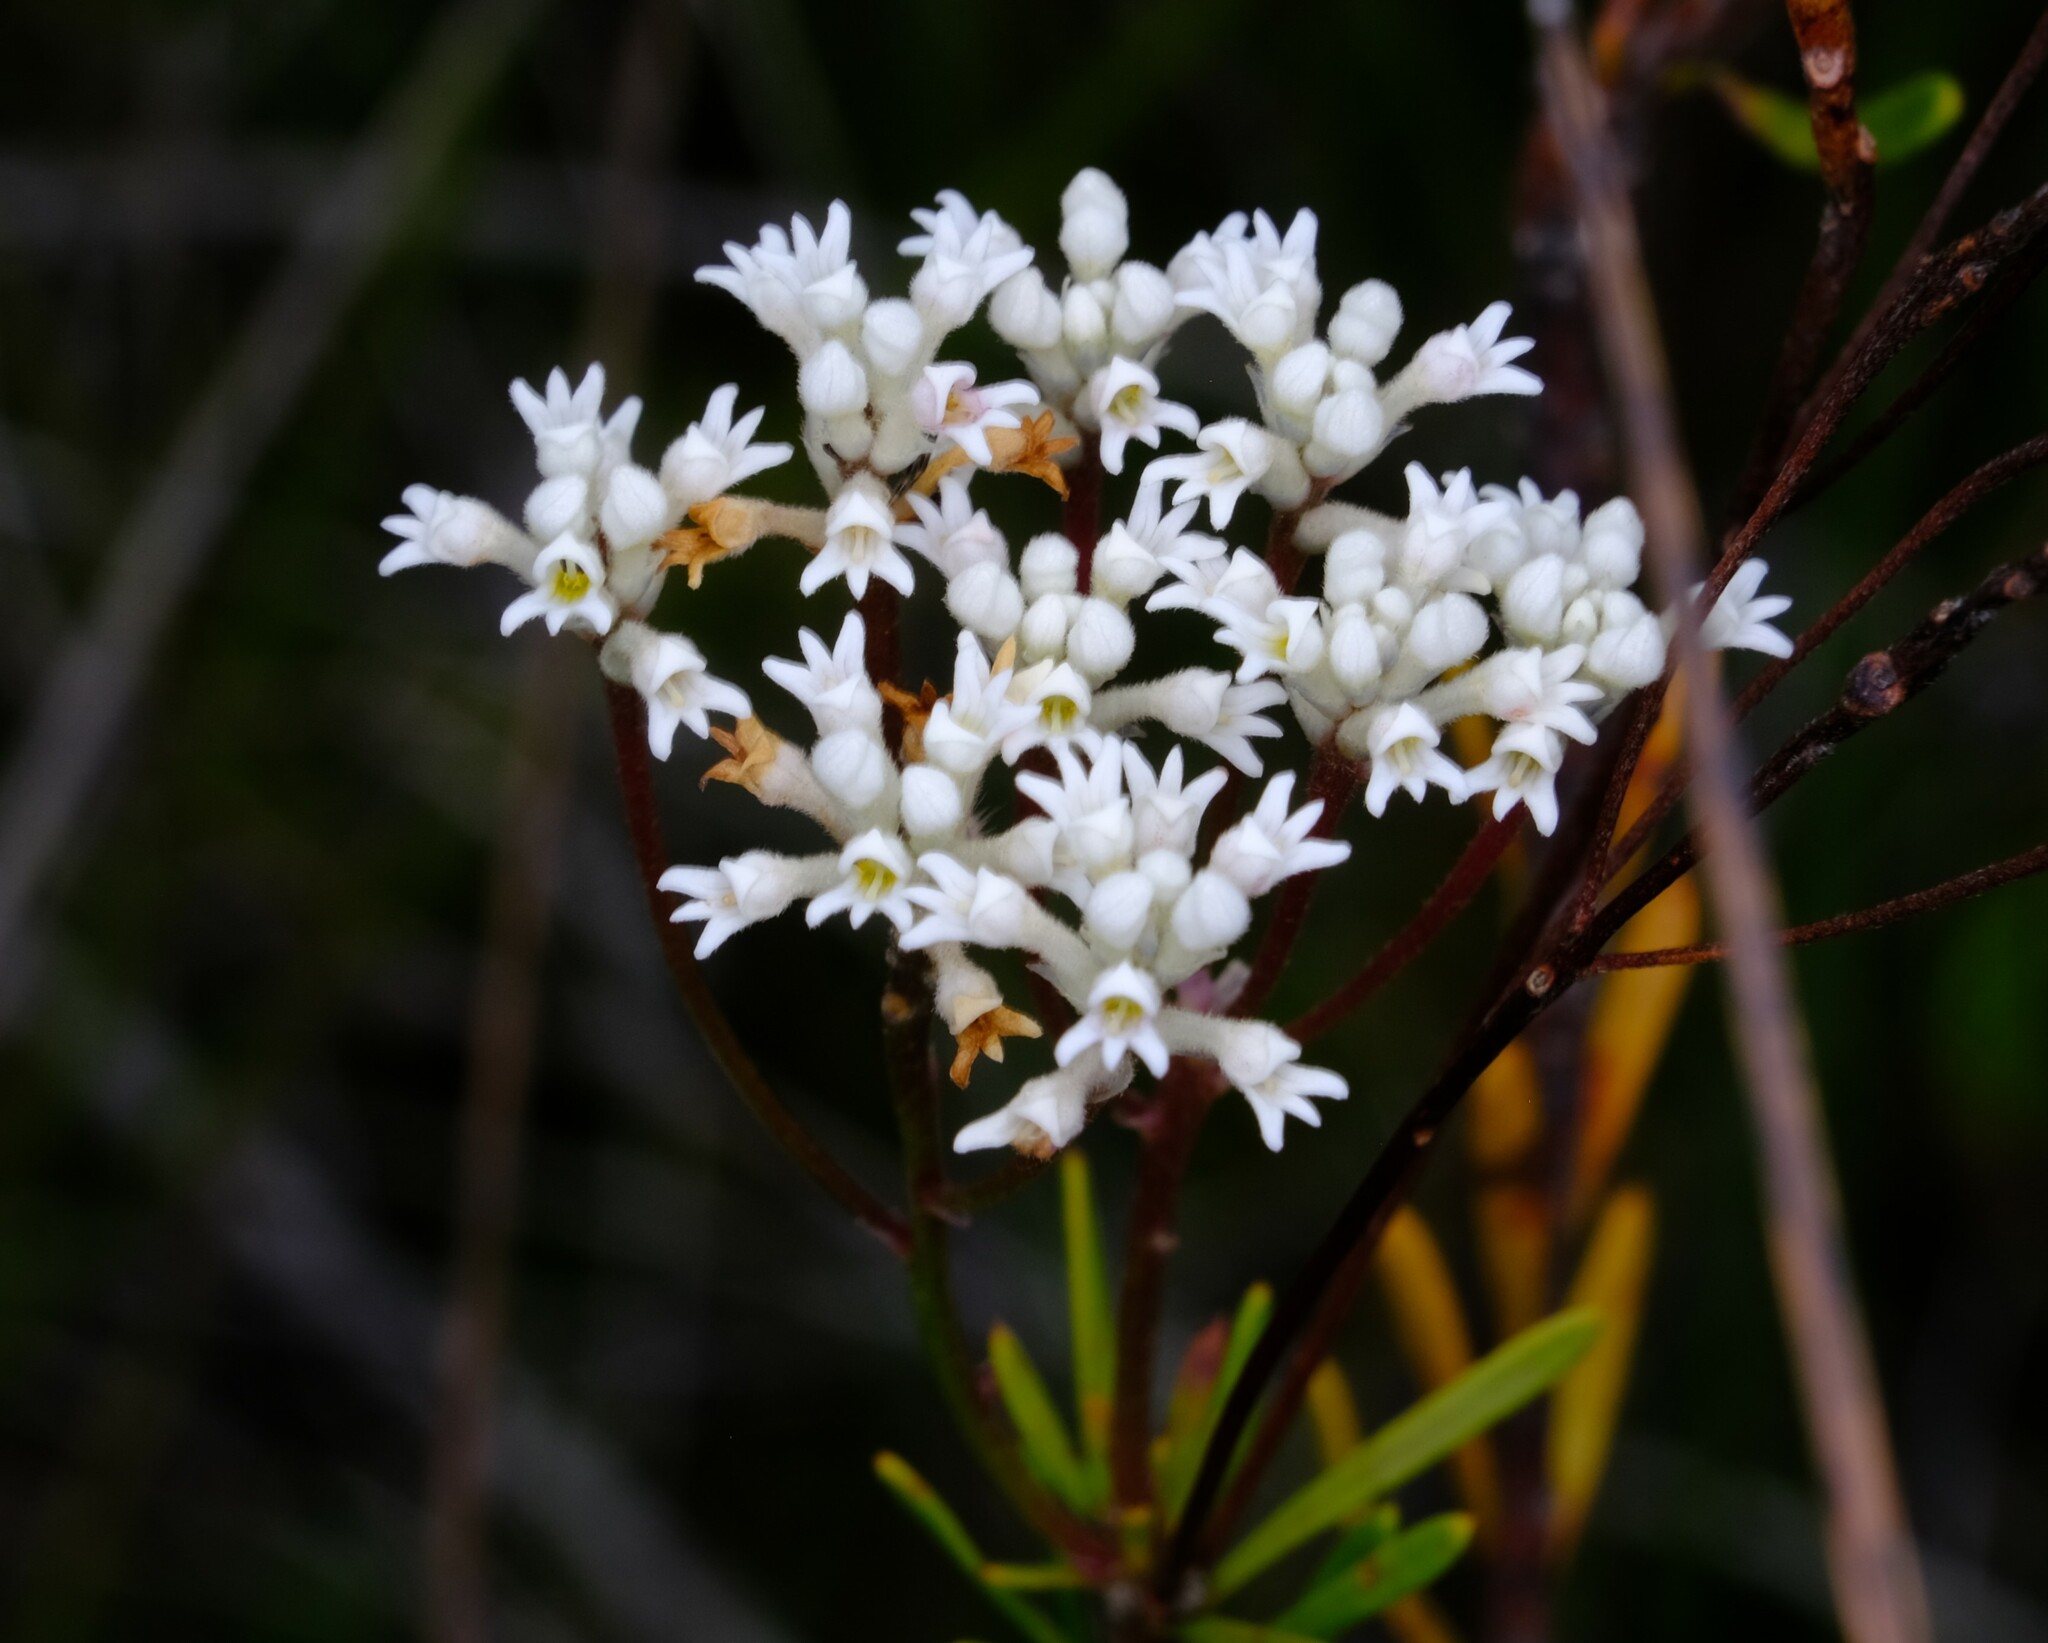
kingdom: Plantae
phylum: Tracheophyta
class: Magnoliopsida
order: Proteales
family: Proteaceae
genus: Conospermum
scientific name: Conospermum taxifolium
